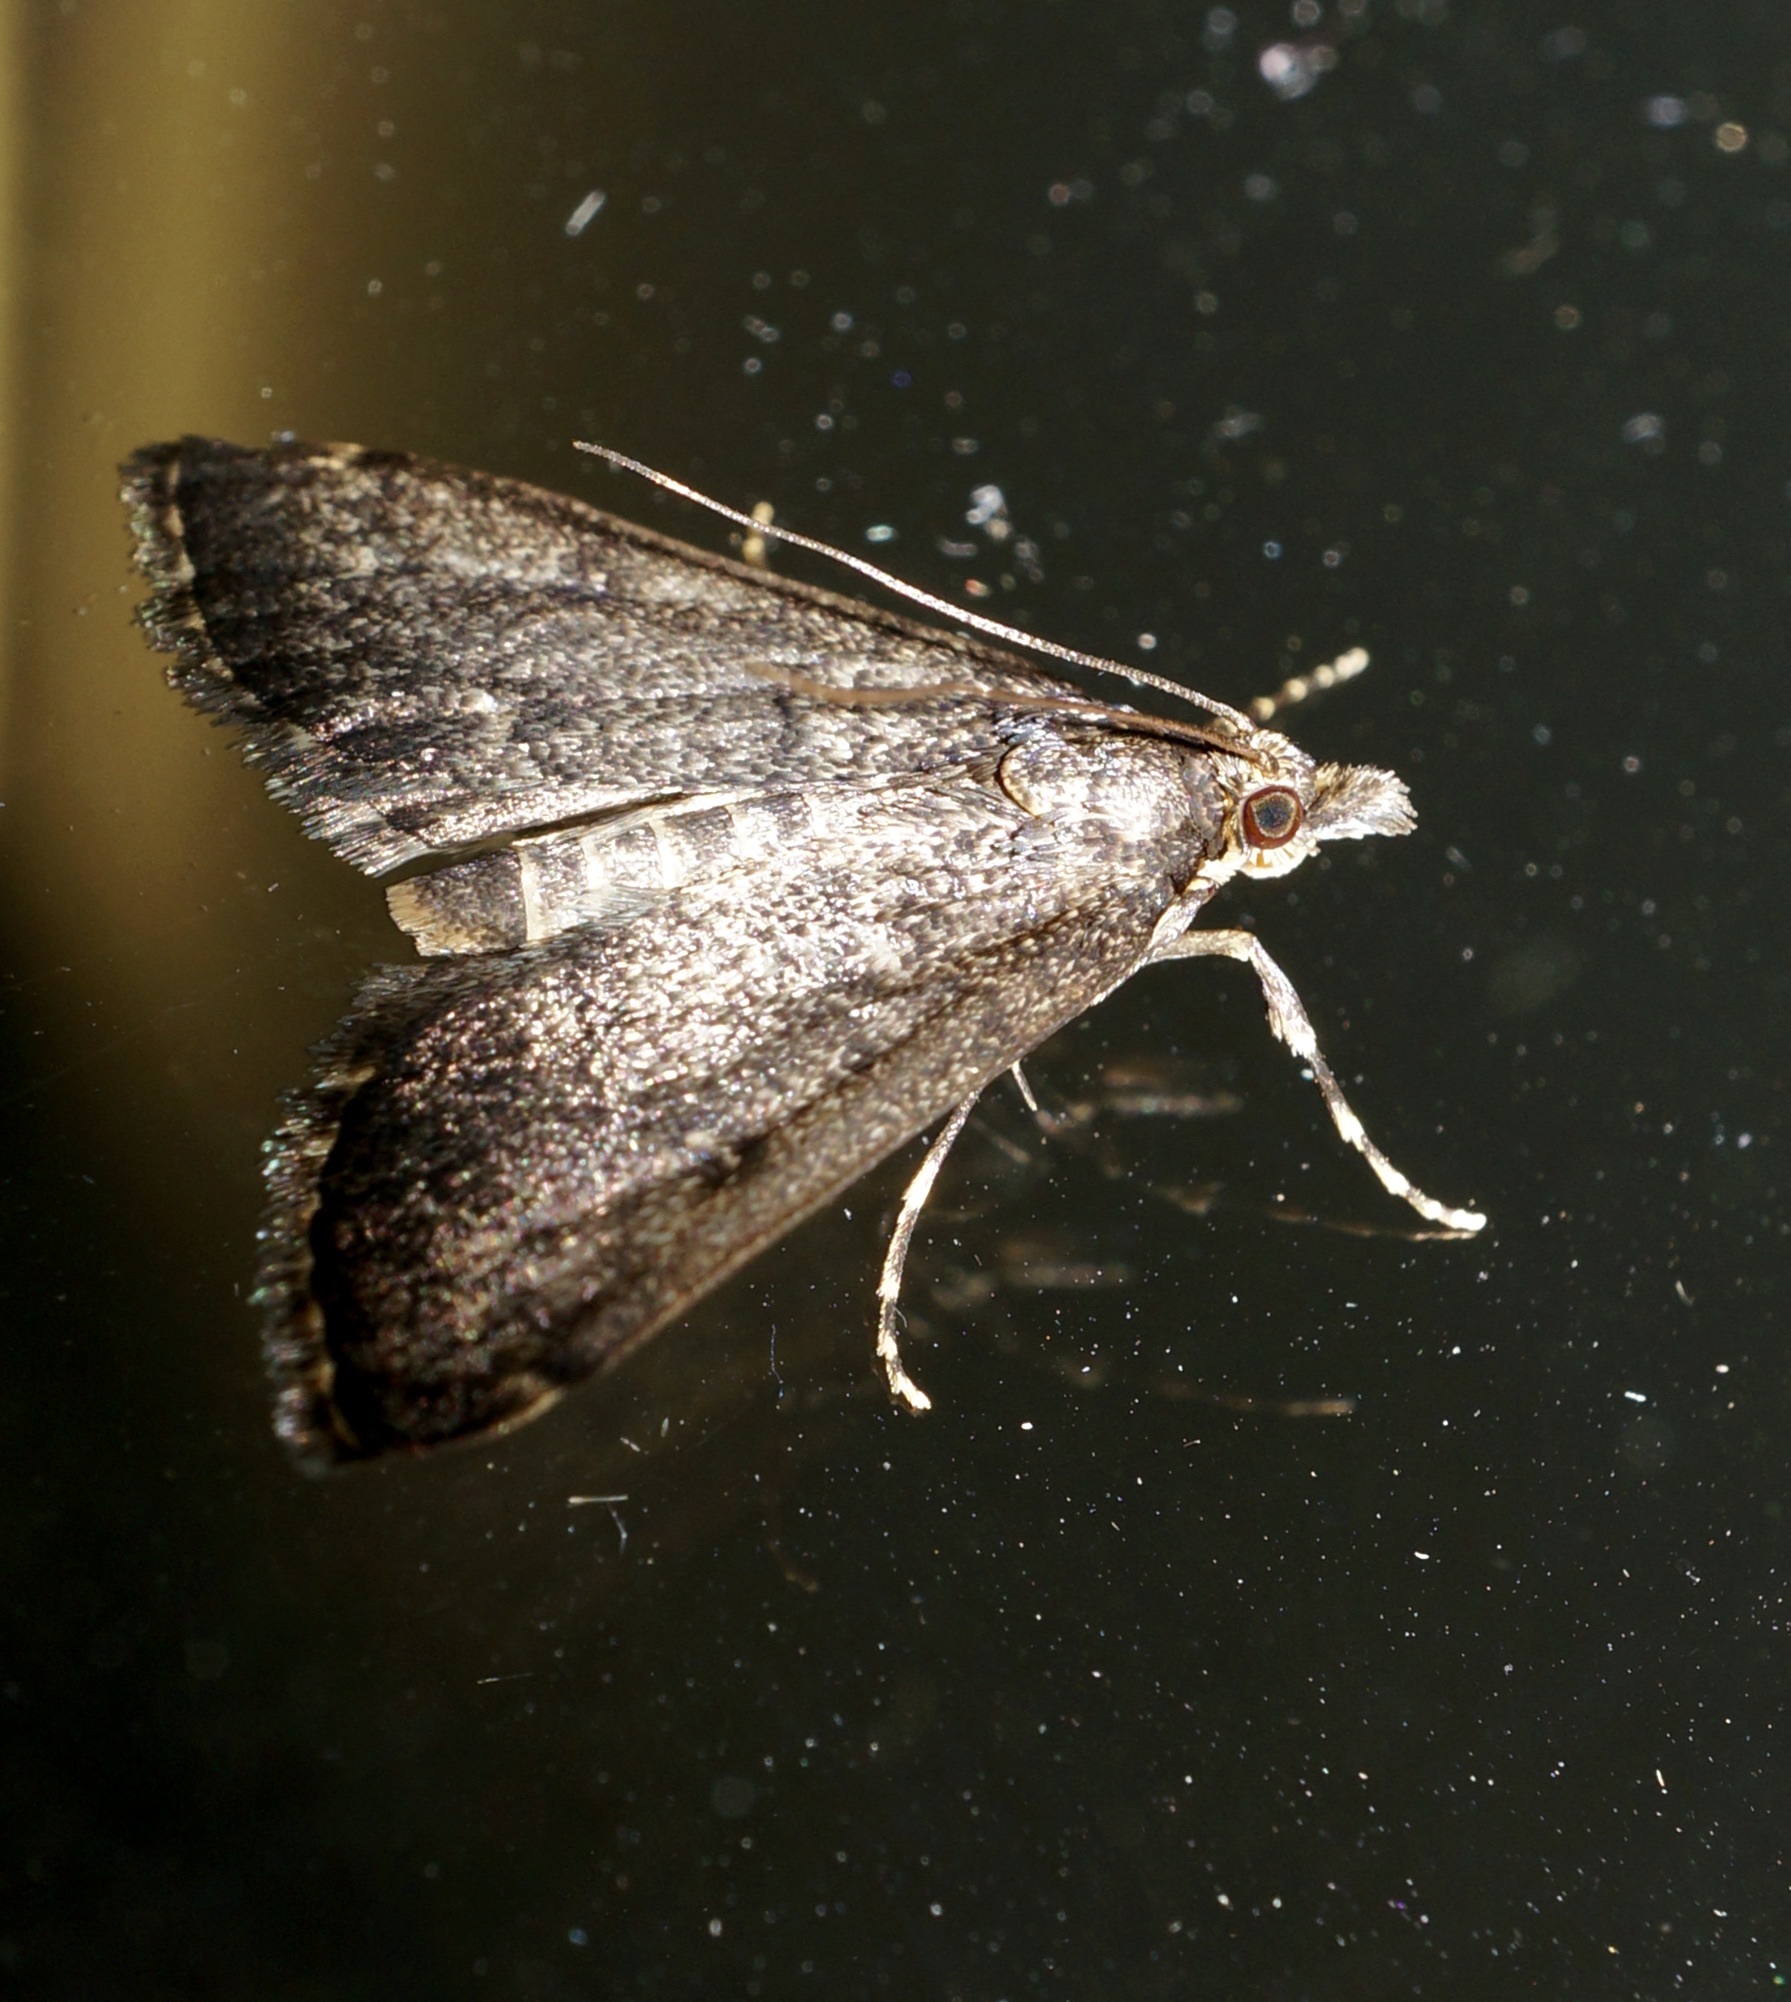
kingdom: Animalia
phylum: Arthropoda
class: Insecta
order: Lepidoptera
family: Crambidae
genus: Loxostege
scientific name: Loxostege Proternia philocapna
